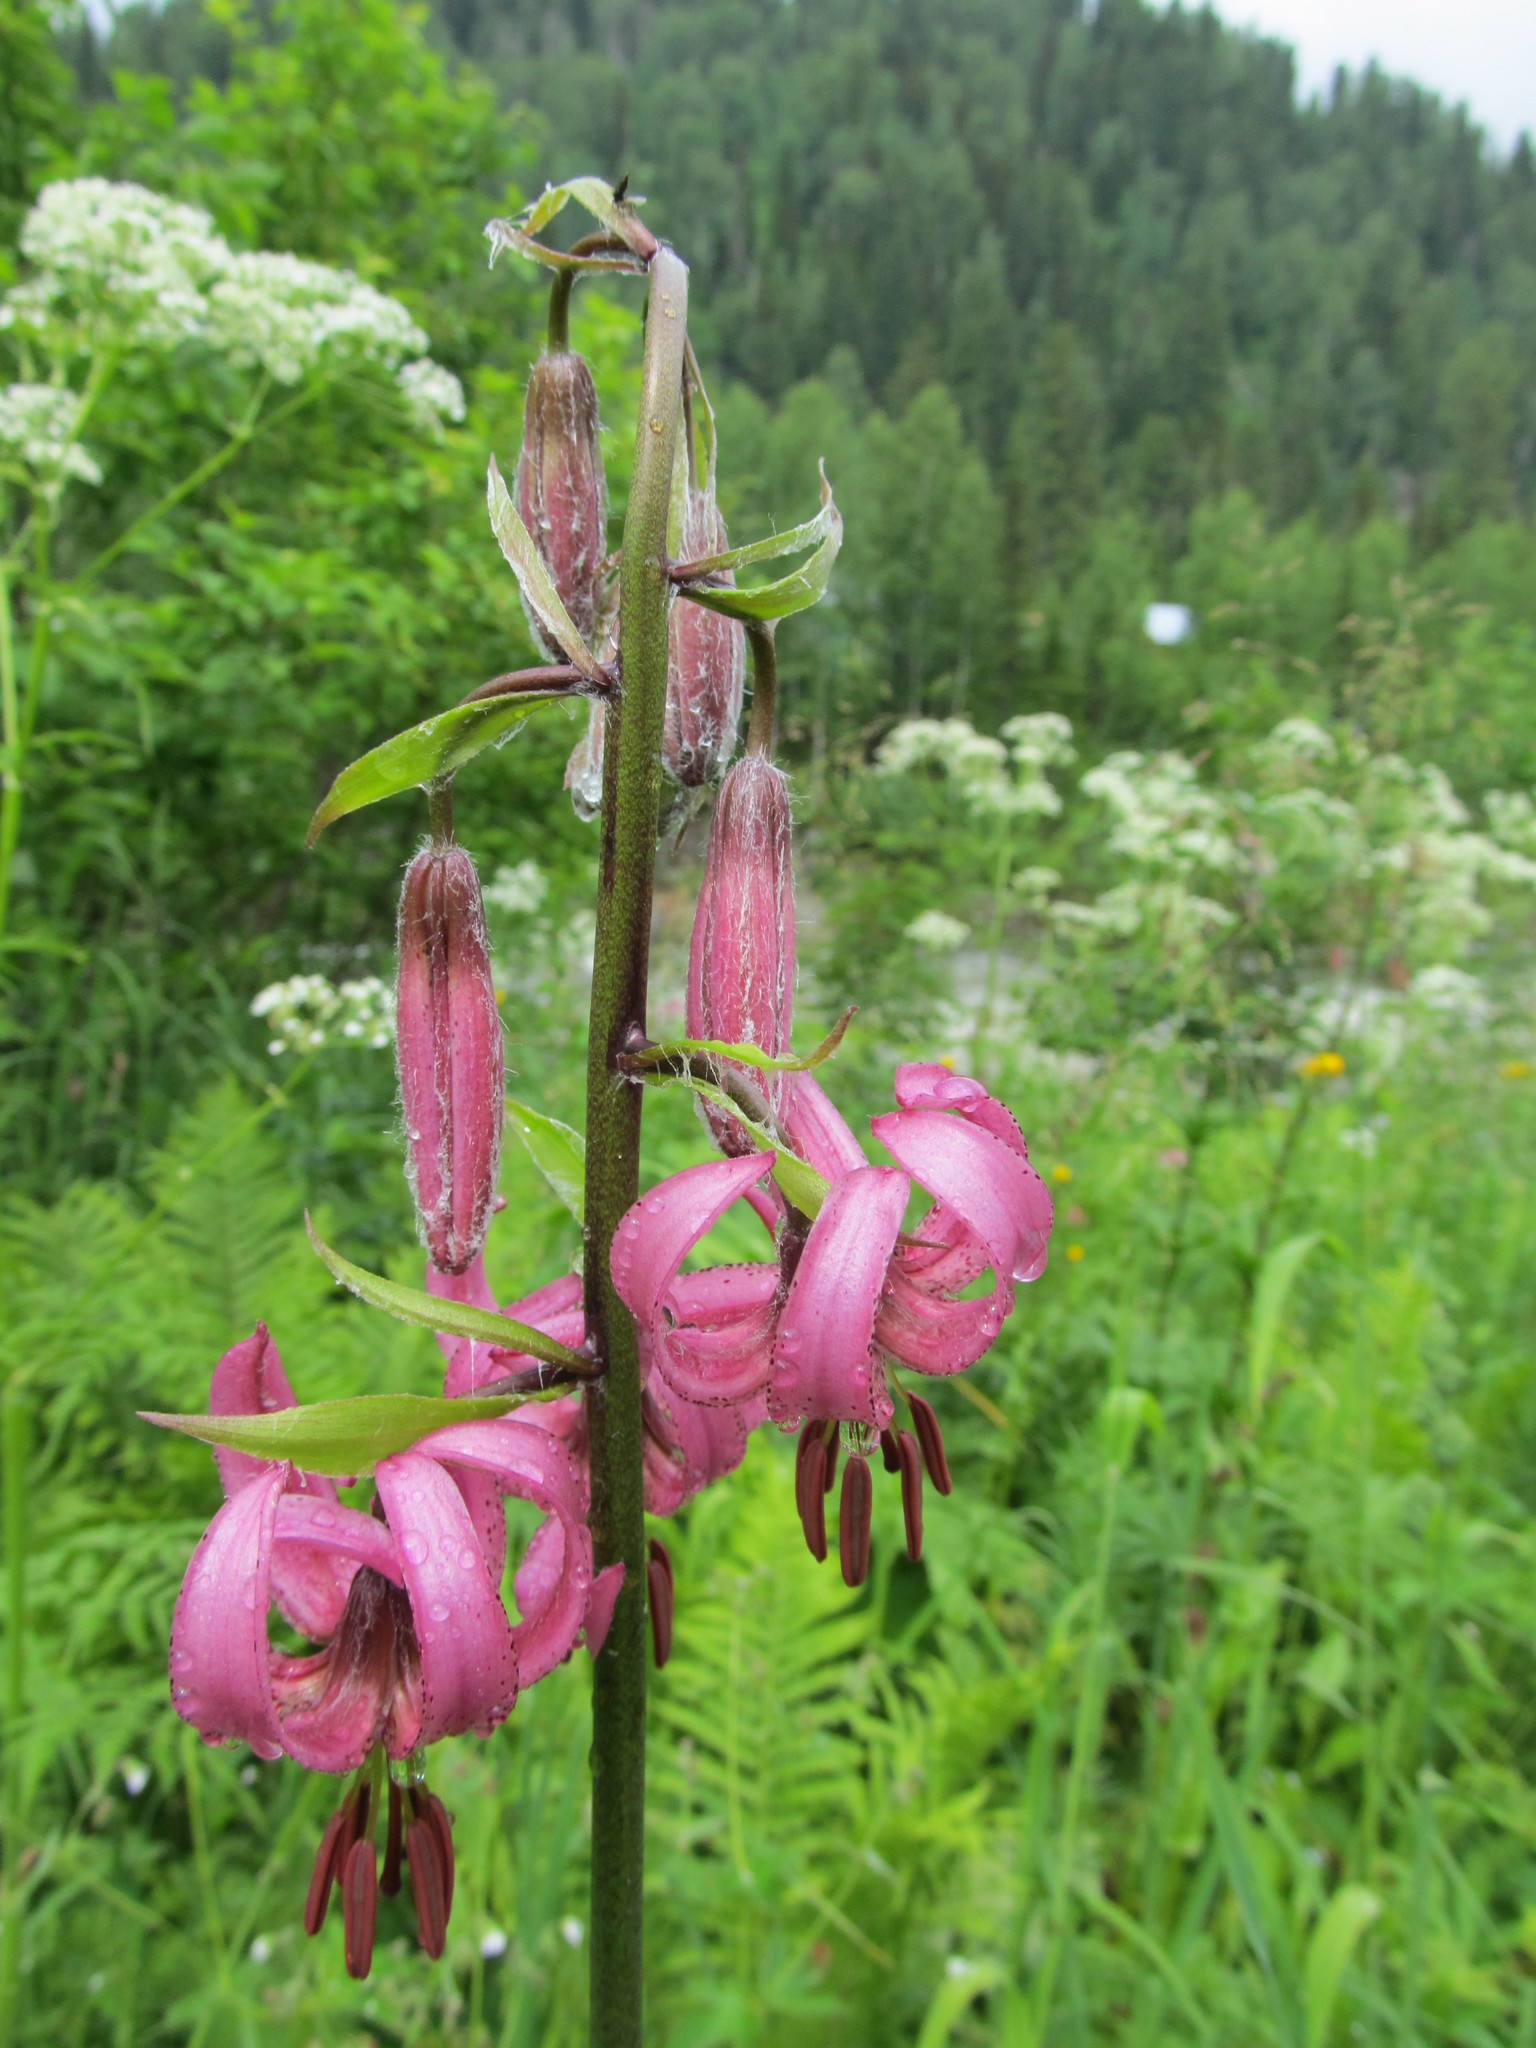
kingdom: Plantae
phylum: Tracheophyta
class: Liliopsida
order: Liliales
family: Liliaceae
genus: Lilium
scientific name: Lilium martagon
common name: Martagon lily
